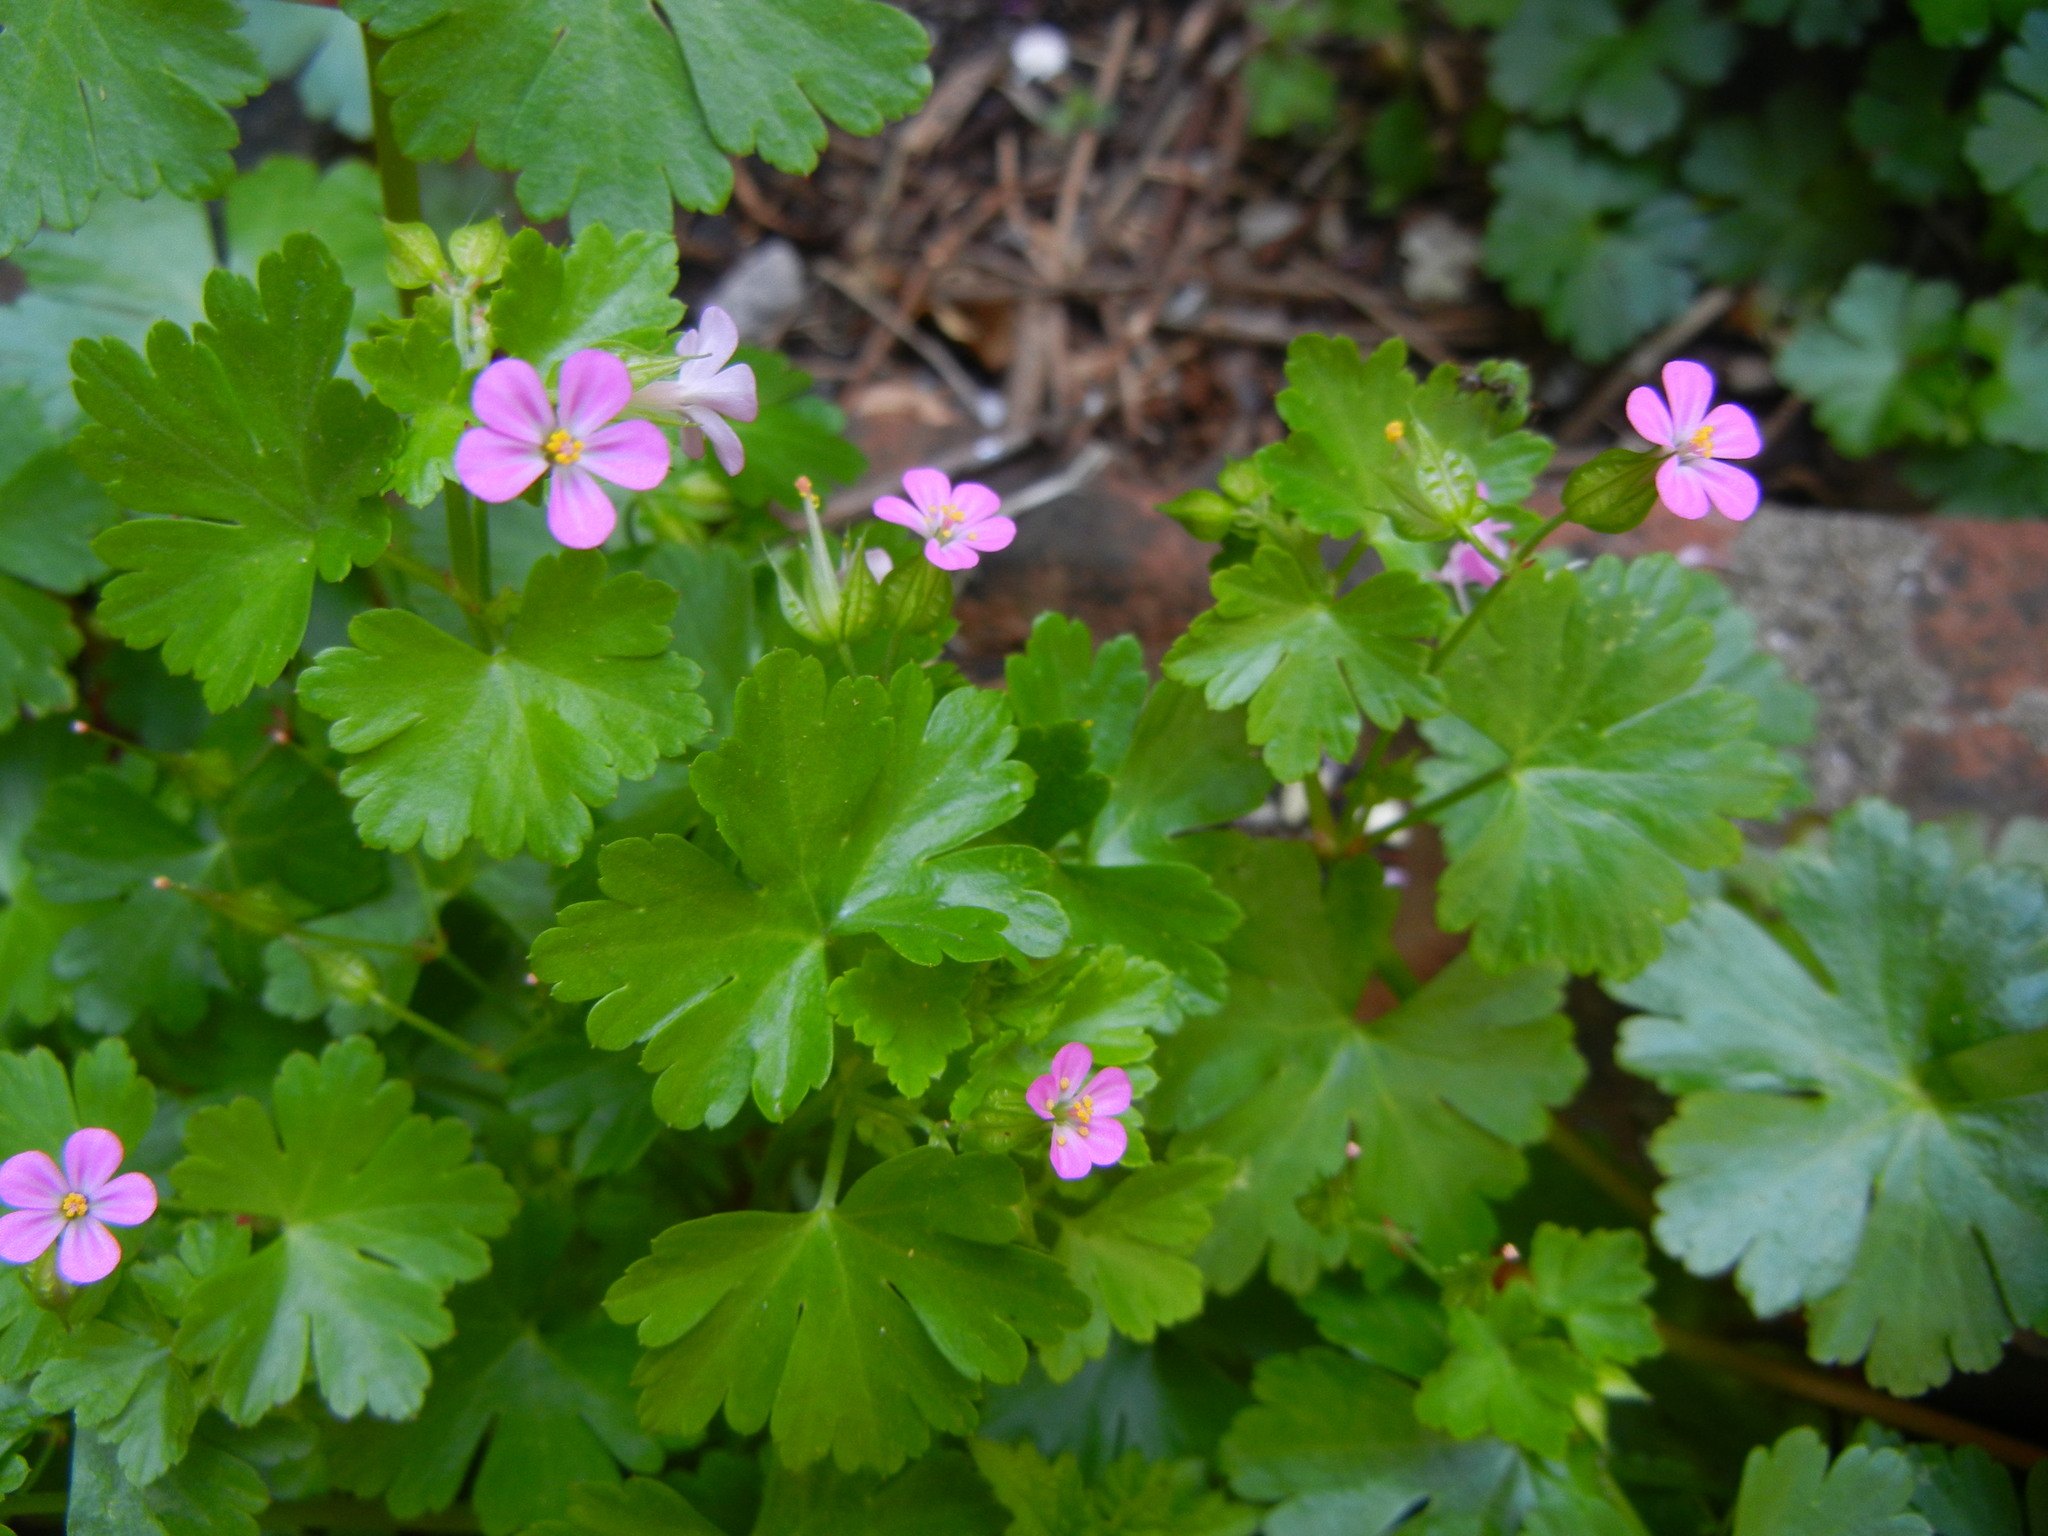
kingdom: Plantae
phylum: Tracheophyta
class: Magnoliopsida
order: Geraniales
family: Geraniaceae
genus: Geranium
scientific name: Geranium lucidum
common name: Shining crane's-bill
